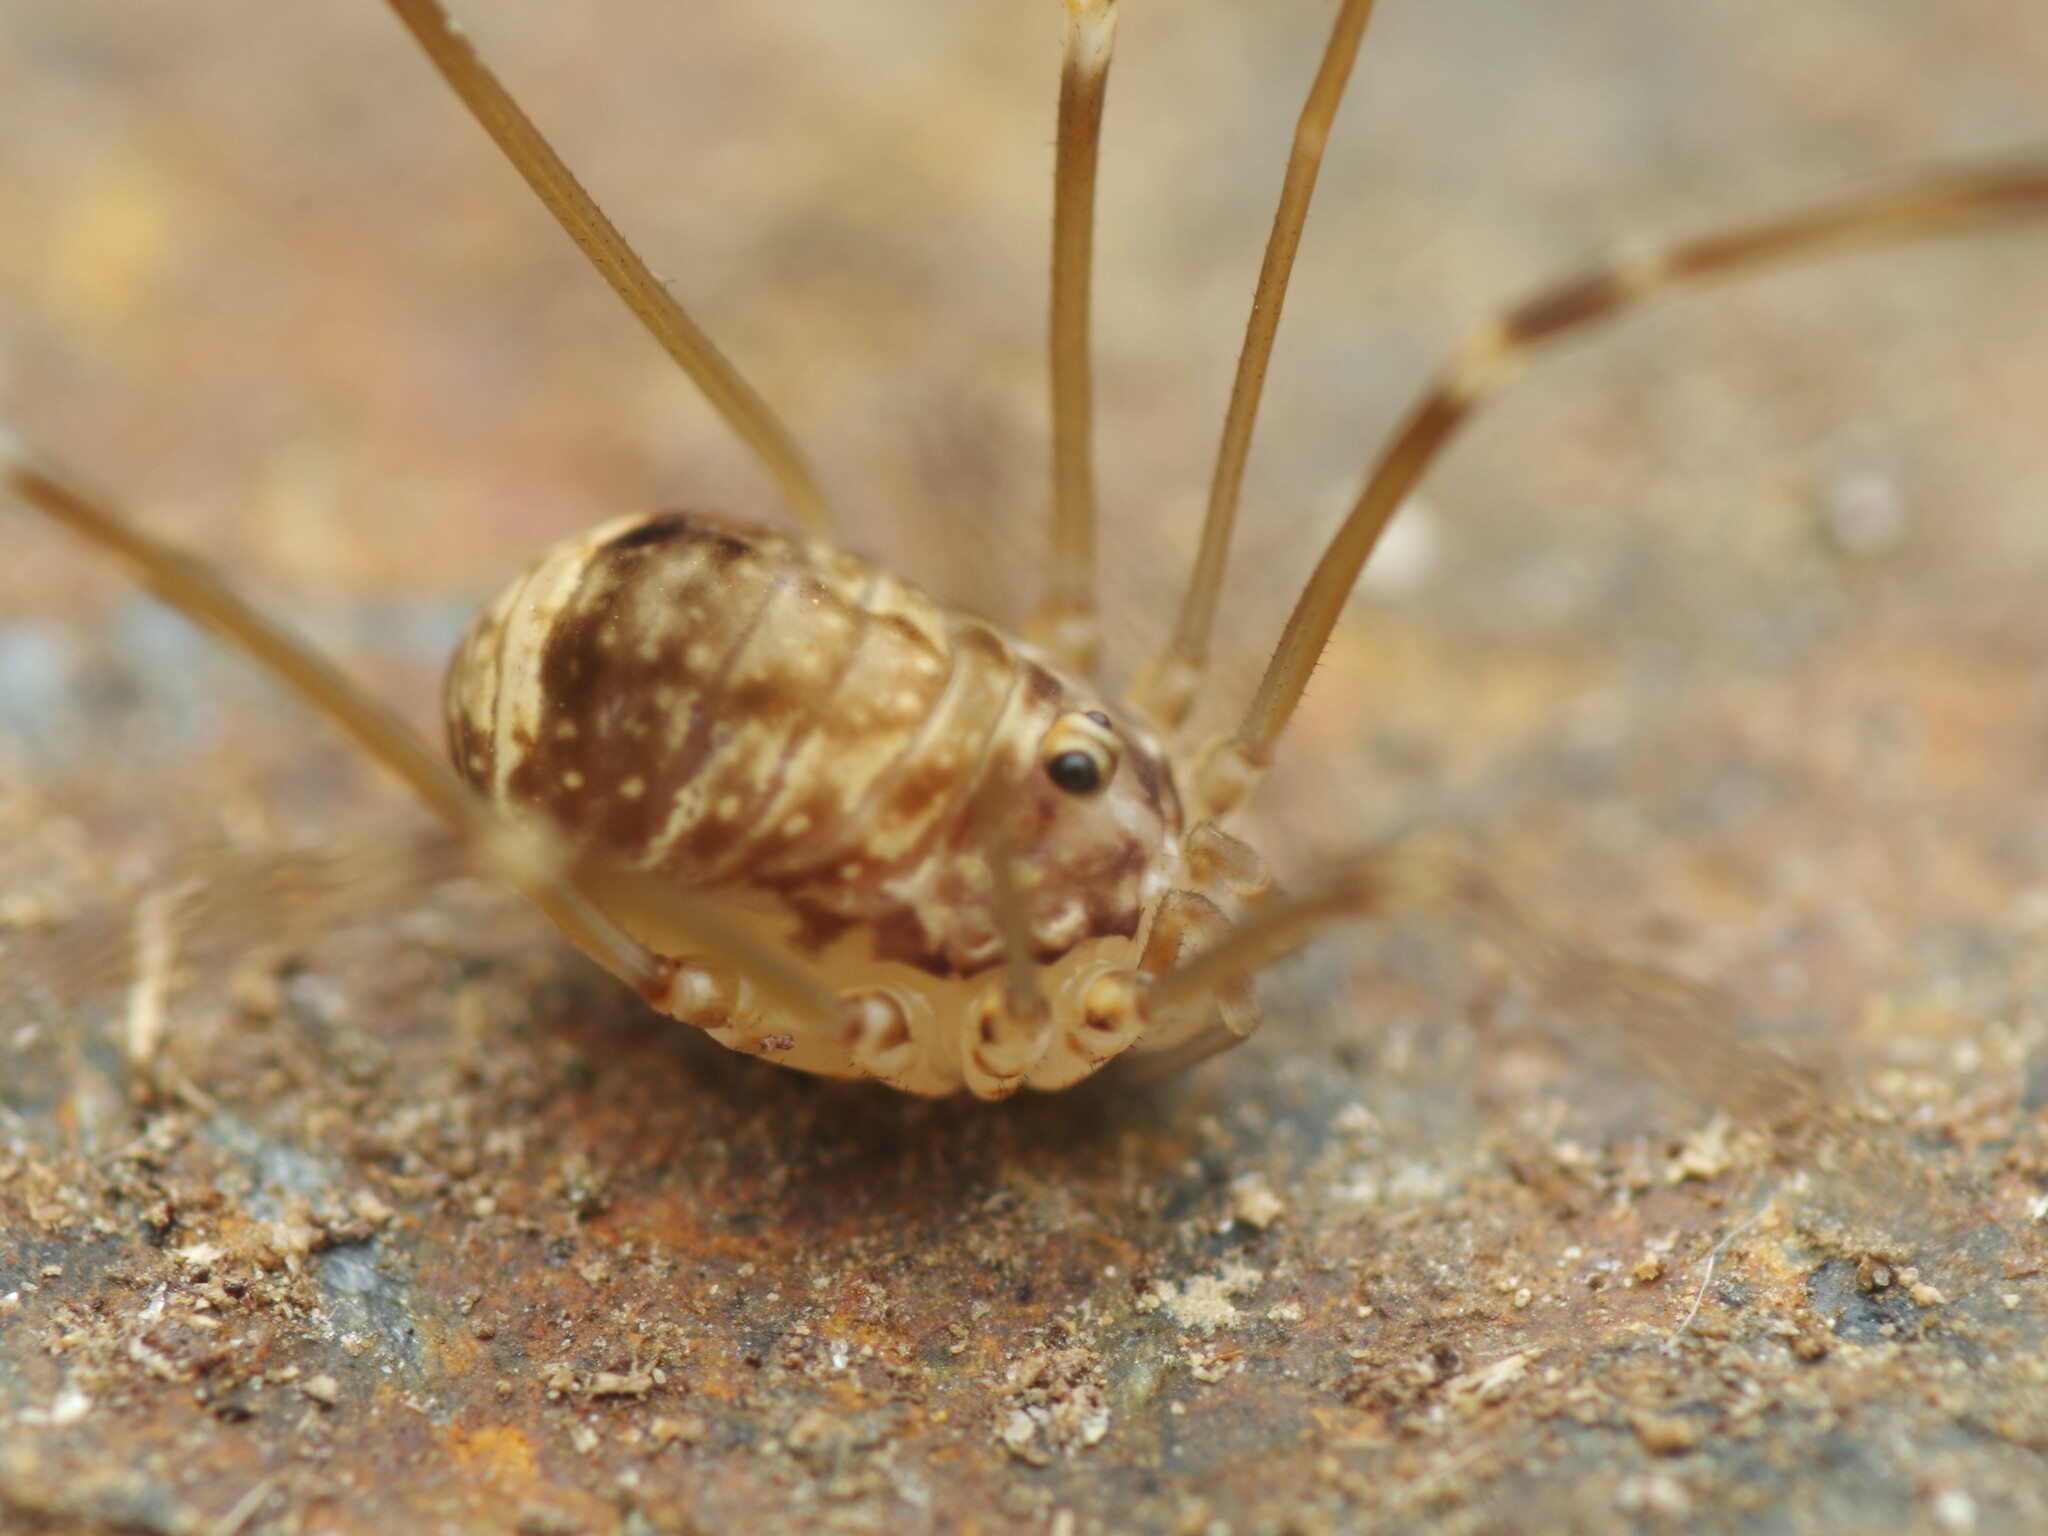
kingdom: Animalia
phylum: Arthropoda
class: Arachnida
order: Opiliones
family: Sclerosomatidae
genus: Leiobunum
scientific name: Leiobunum blackwalli
